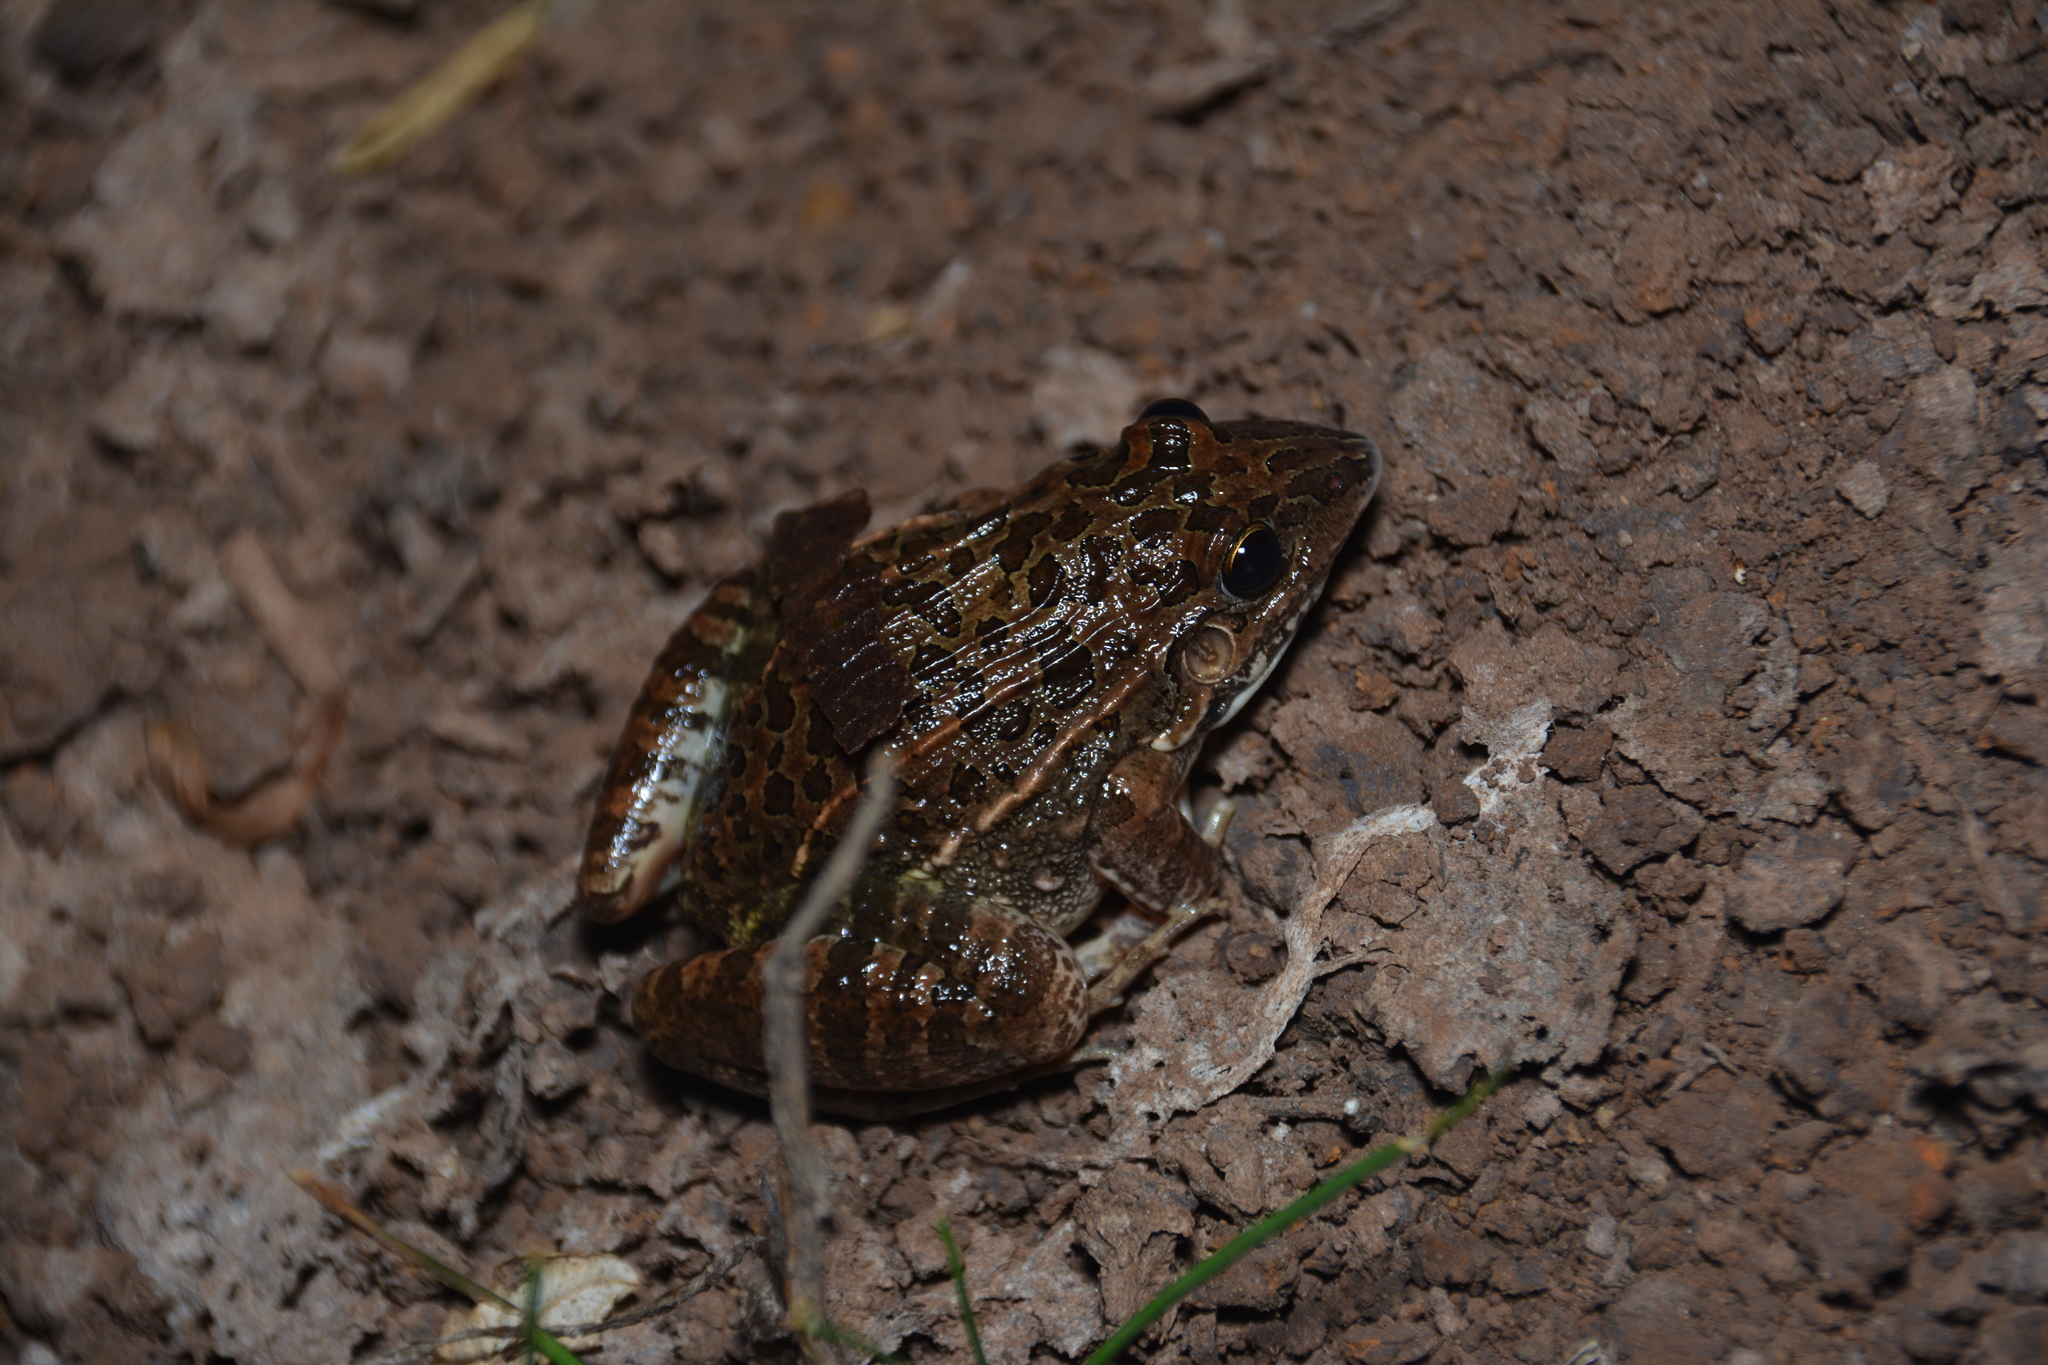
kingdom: Animalia
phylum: Chordata
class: Amphibia
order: Anura
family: Leptodactylidae
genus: Leptodactylus
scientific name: Leptodactylus fuscus
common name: Rufous frog
